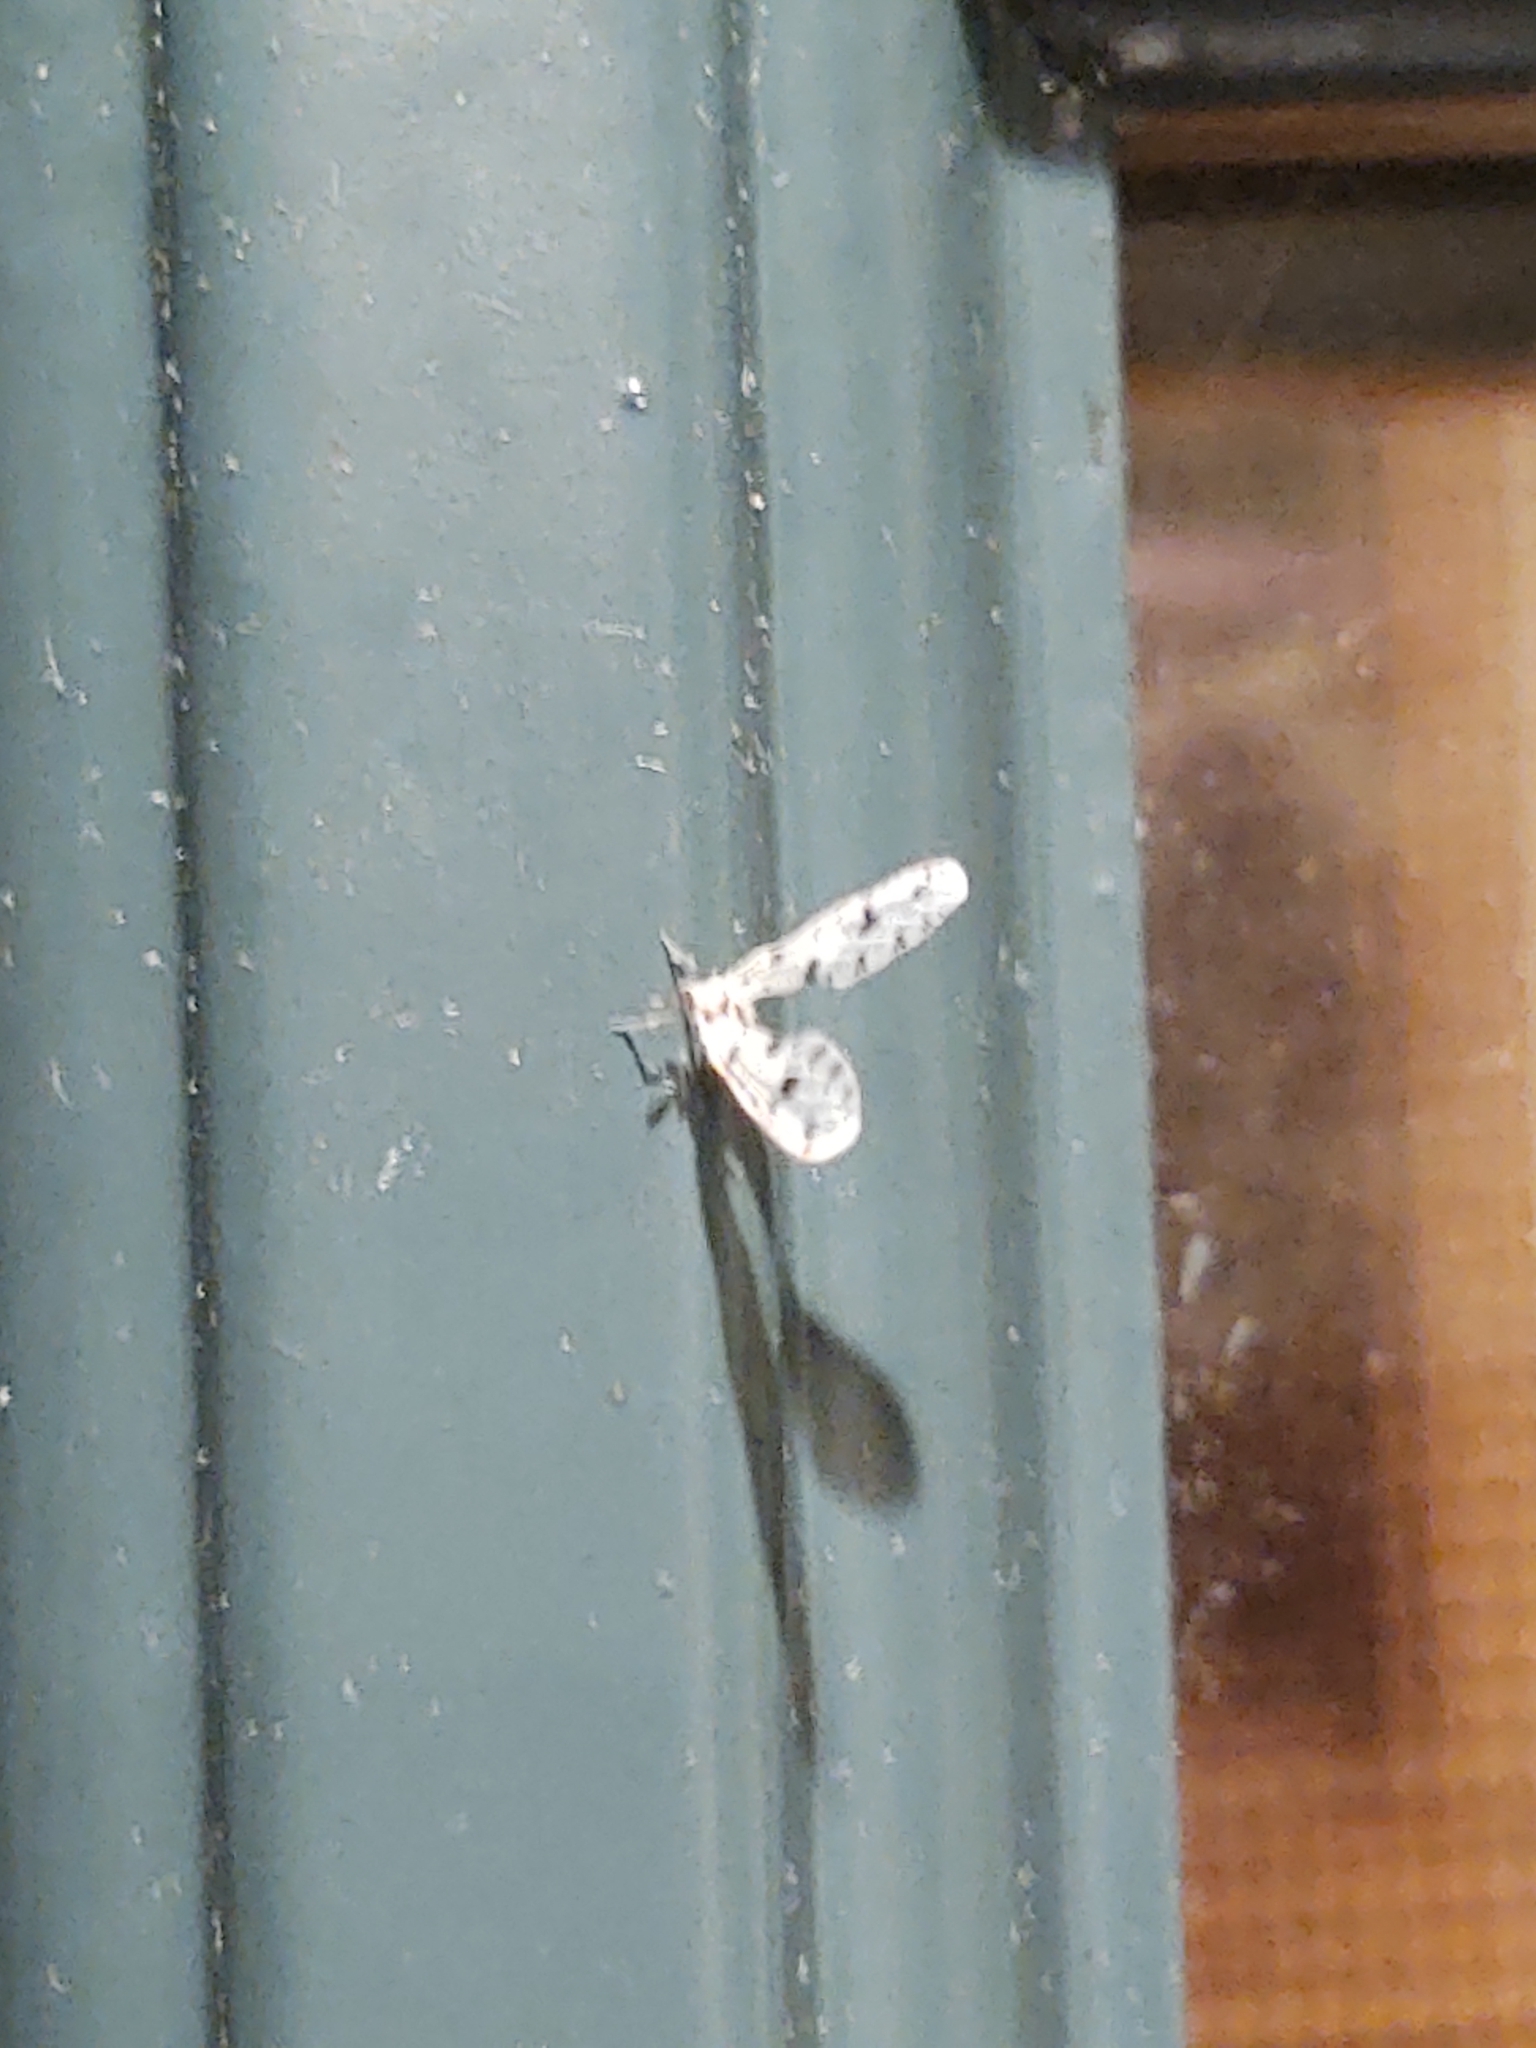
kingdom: Animalia
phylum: Arthropoda
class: Insecta
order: Hemiptera
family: Derbidae
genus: Sikaiana
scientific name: Sikaiana harti
